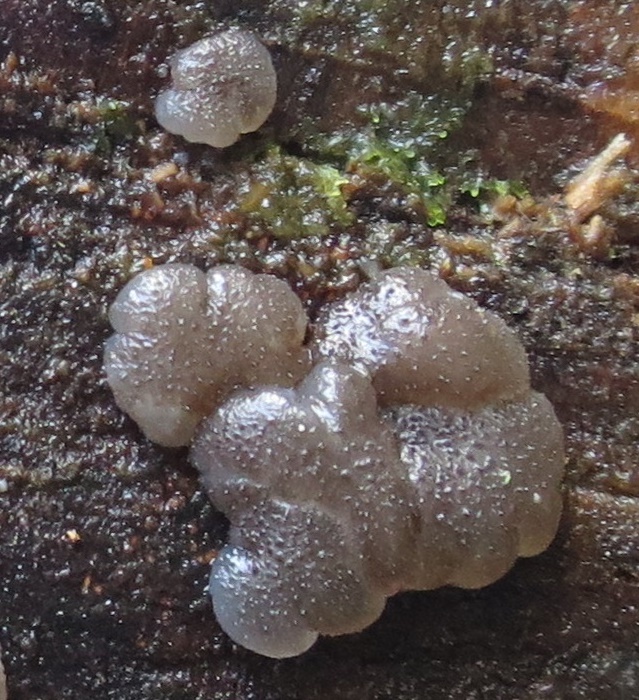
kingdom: Fungi
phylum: Basidiomycota
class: Agaricomycetes
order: Auriculariales
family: Auriculariaceae
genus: Tremellochaete
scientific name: Tremellochaete
